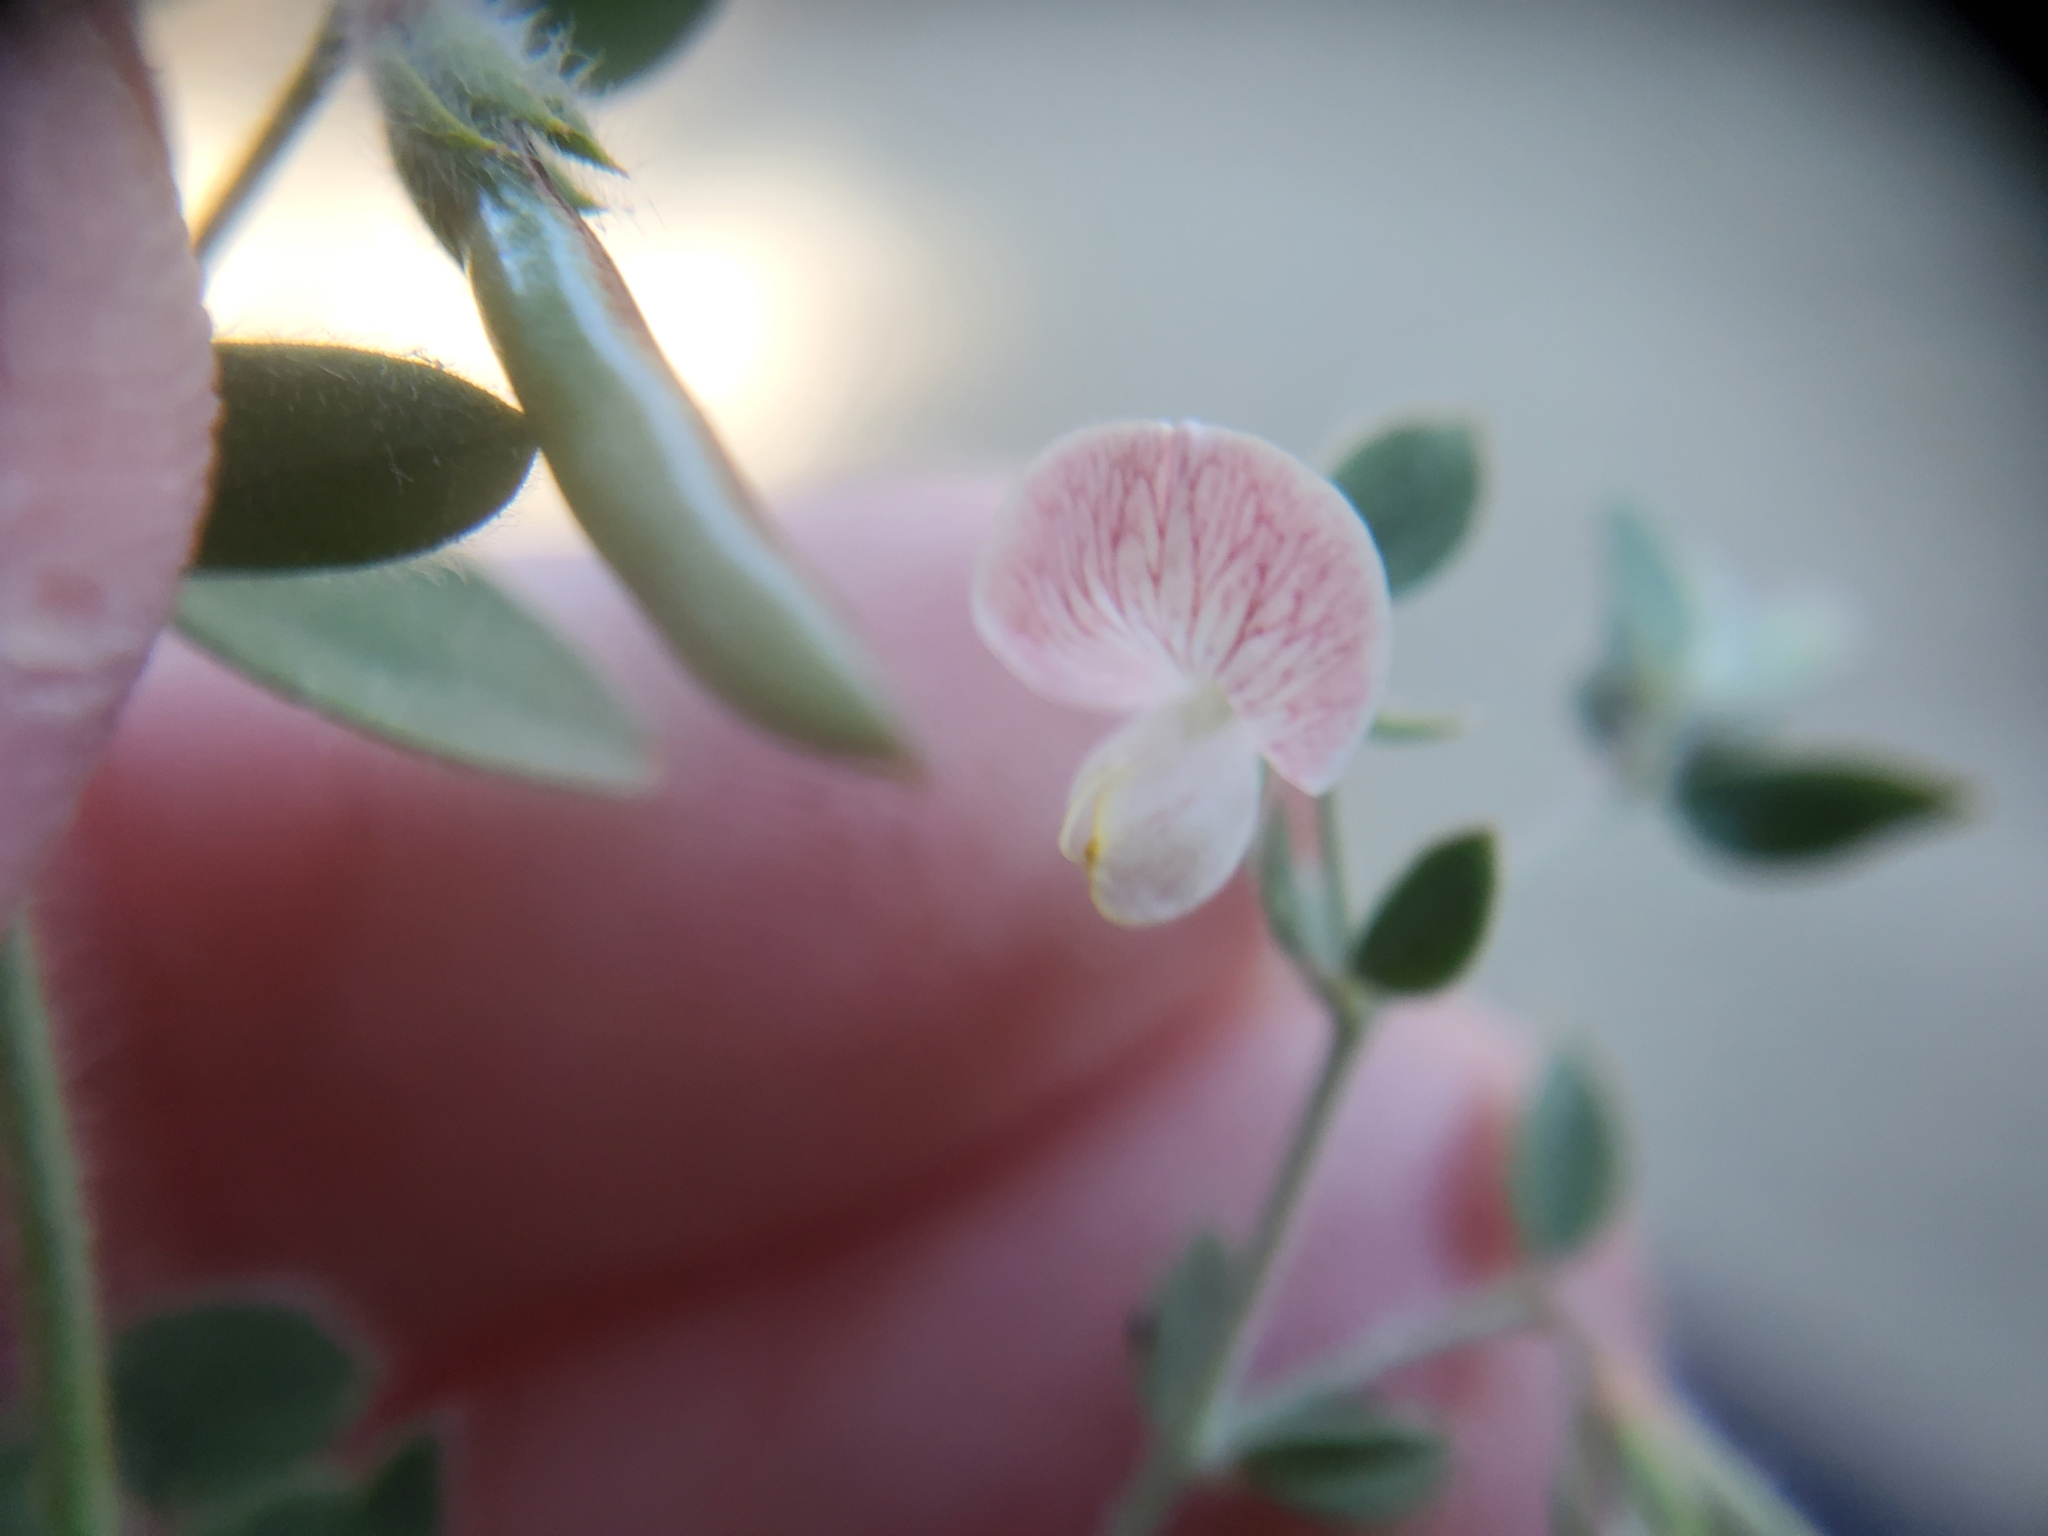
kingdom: Plantae
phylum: Tracheophyta
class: Magnoliopsida
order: Fabales
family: Fabaceae
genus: Acmispon
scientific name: Acmispon americanus
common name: American bird's-foot trefoil
